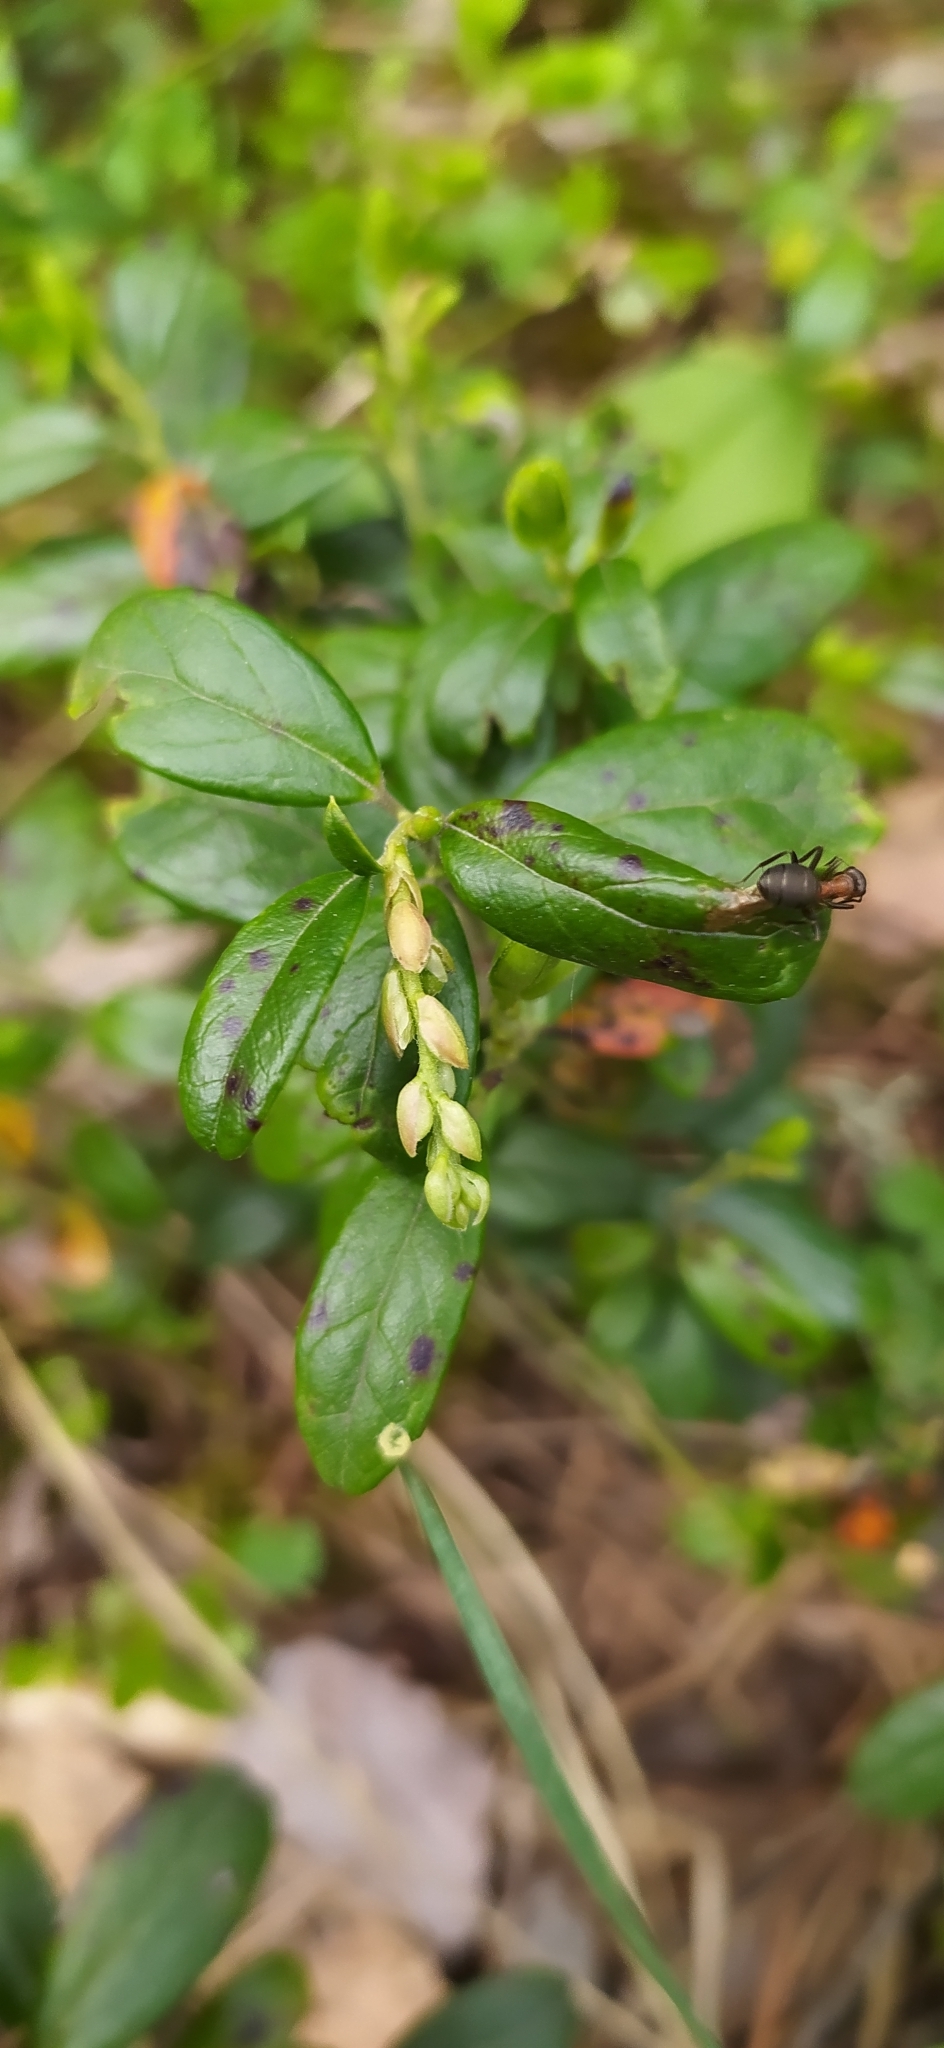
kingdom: Plantae
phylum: Tracheophyta
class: Magnoliopsida
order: Ericales
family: Ericaceae
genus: Vaccinium
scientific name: Vaccinium vitis-idaea
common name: Cowberry
